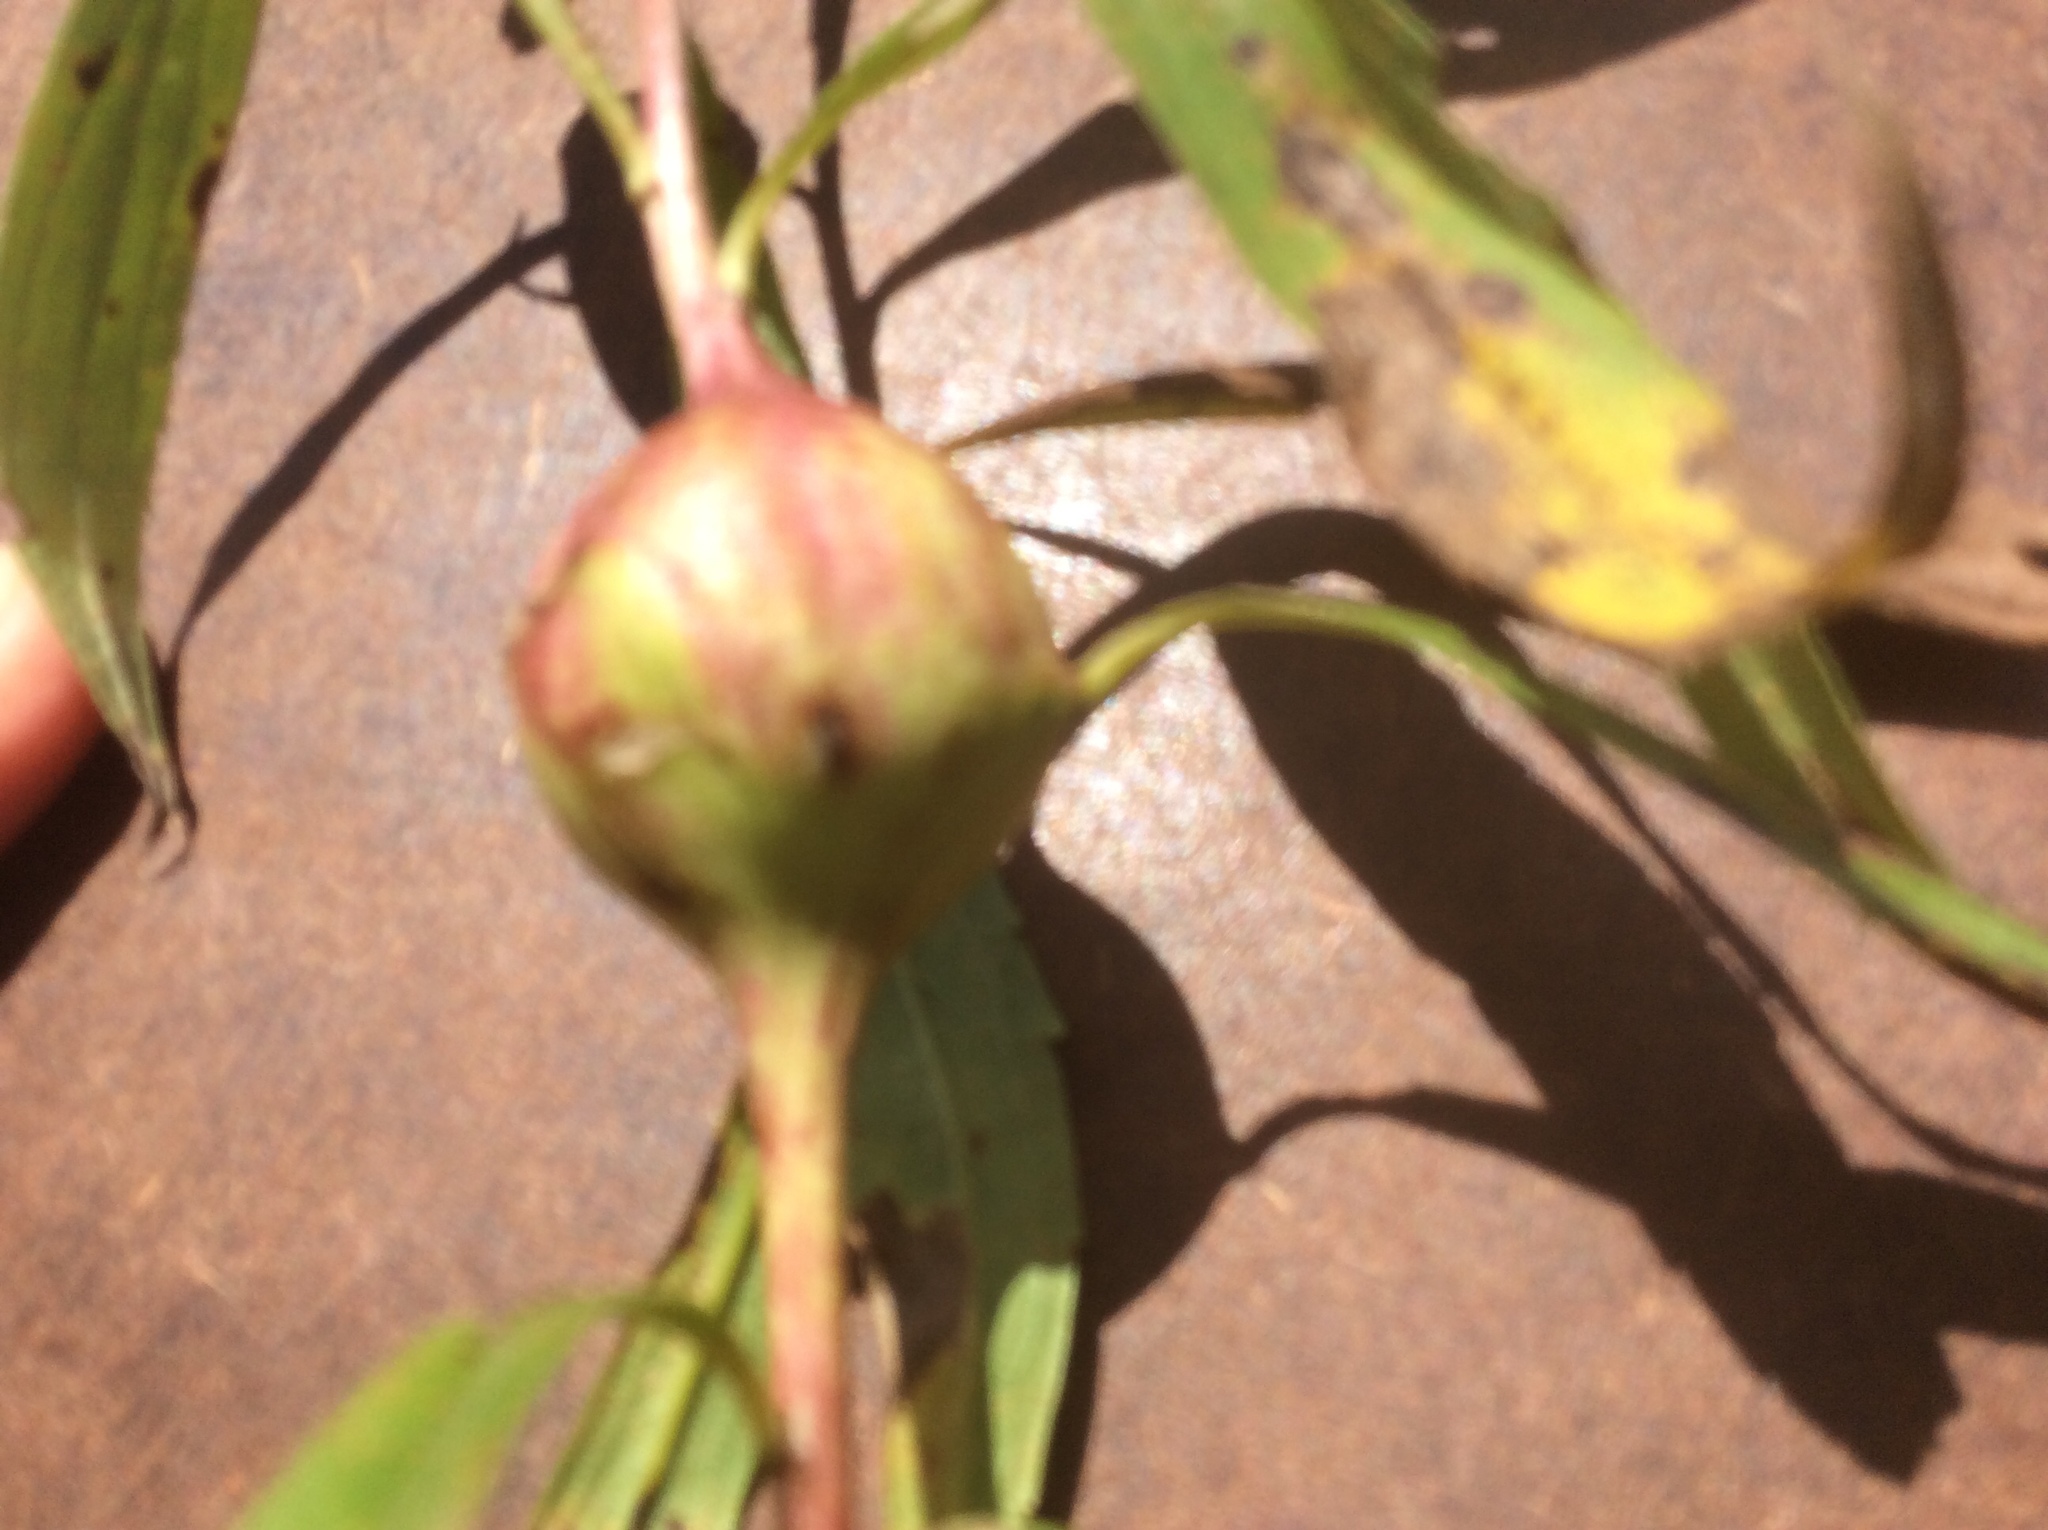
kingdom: Animalia
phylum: Arthropoda
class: Insecta
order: Diptera
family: Tephritidae
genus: Eurosta
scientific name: Eurosta solidaginis
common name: Goldenrod gall fly
